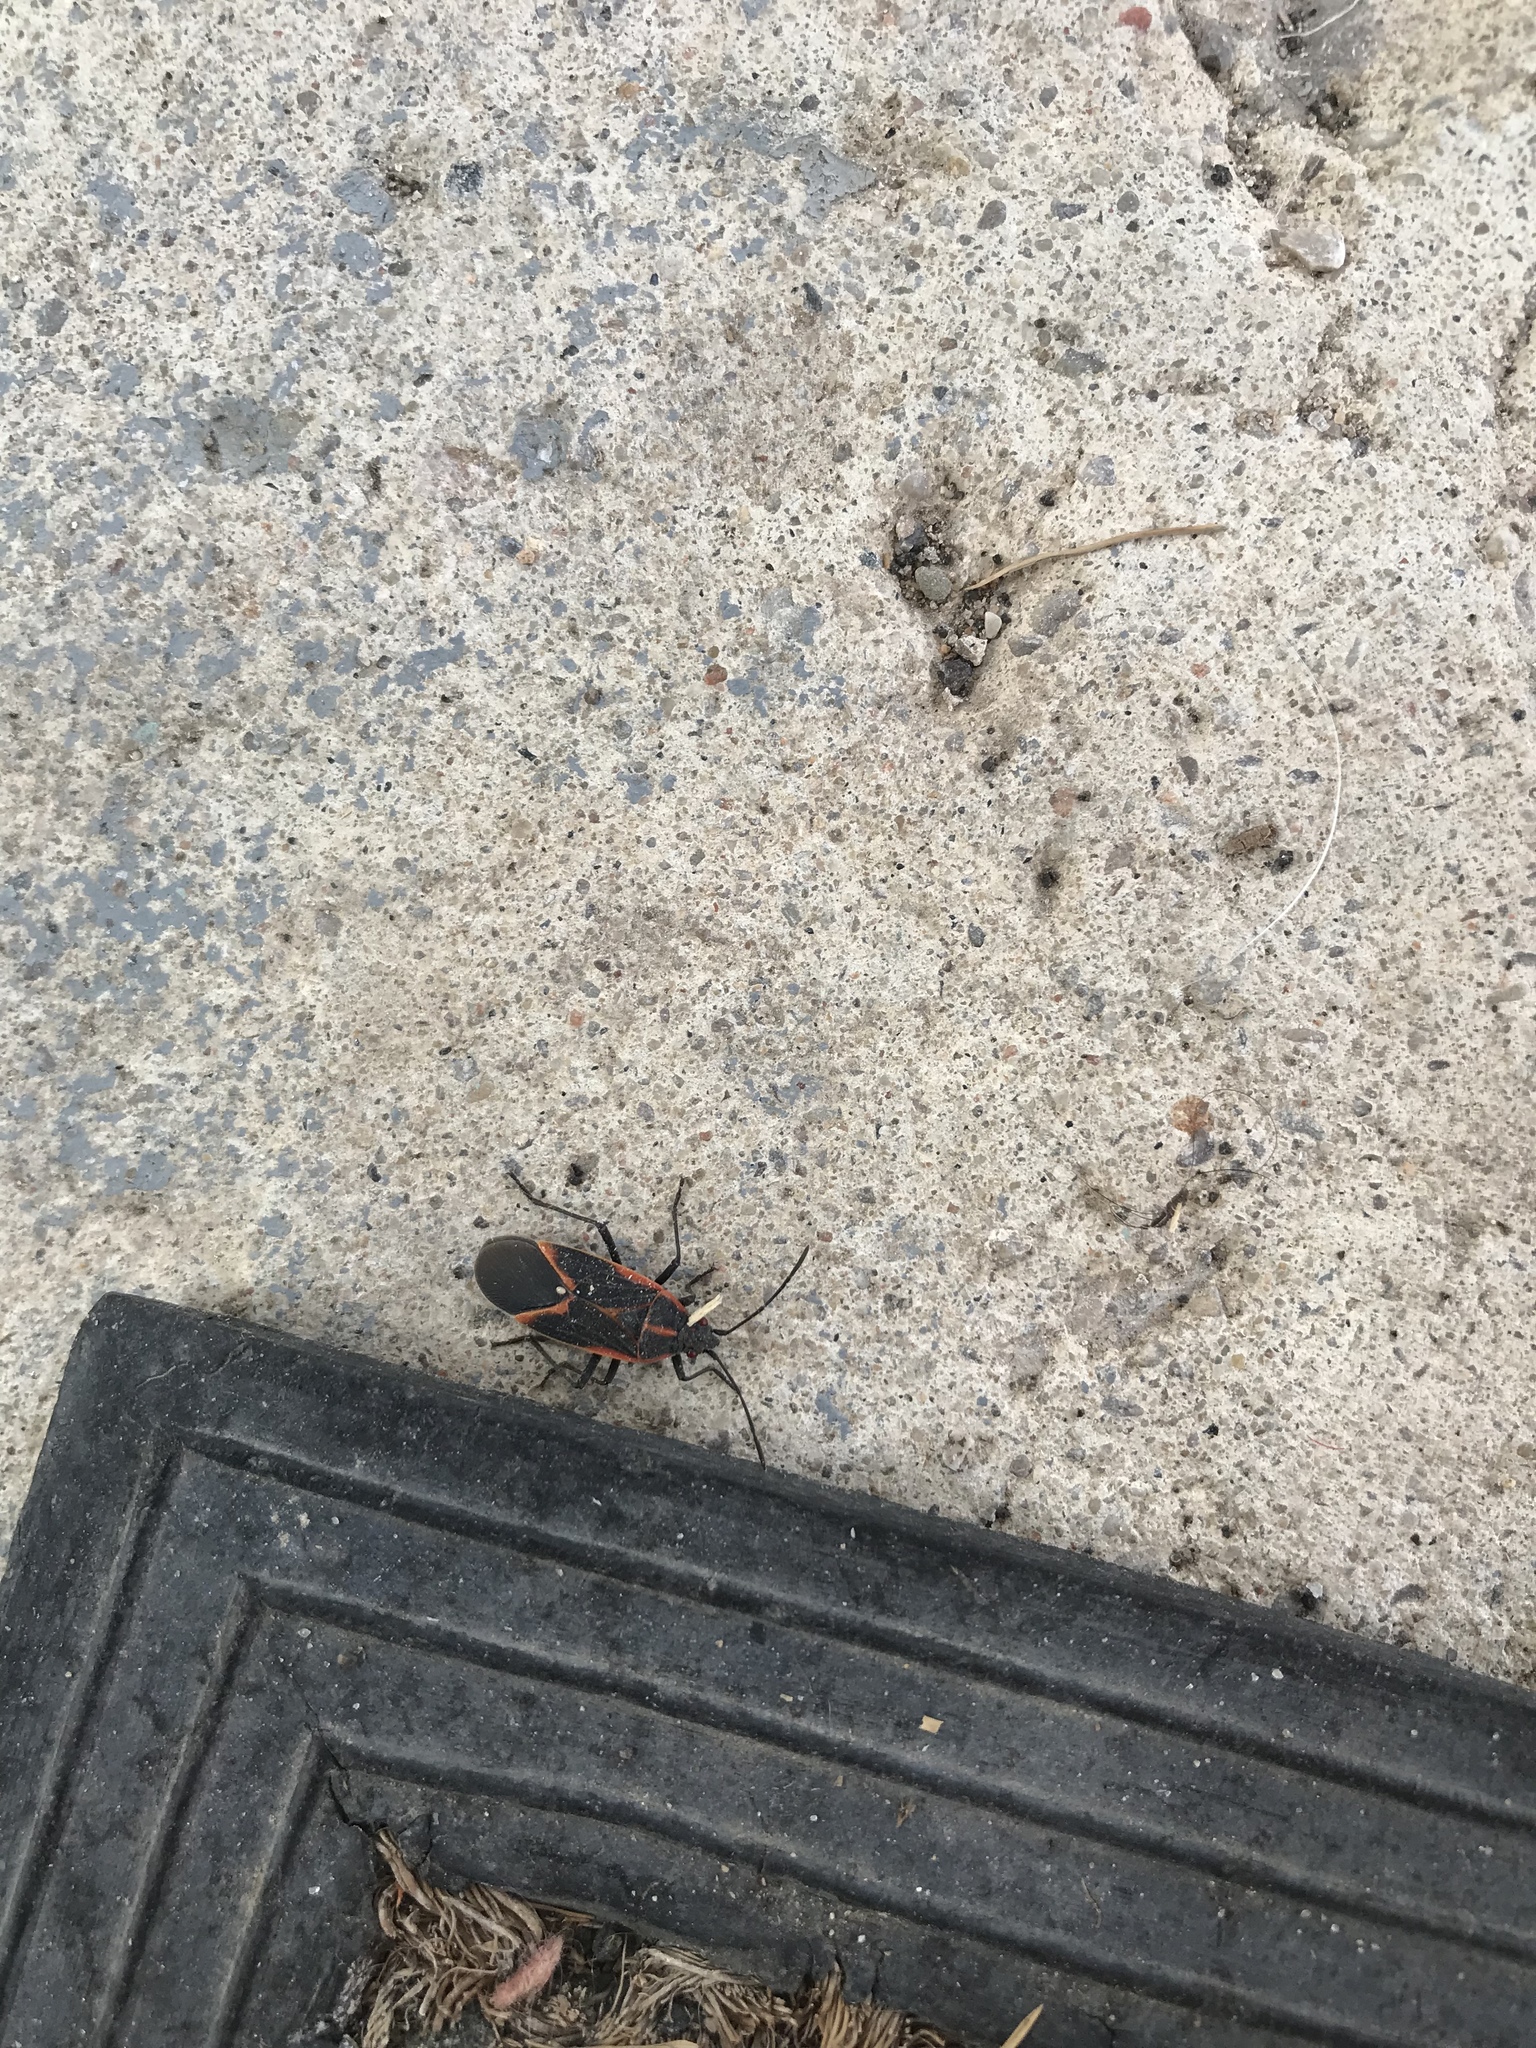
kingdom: Animalia
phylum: Arthropoda
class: Insecta
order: Hemiptera
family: Rhopalidae
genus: Boisea
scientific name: Boisea trivittata
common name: Boxelder bug
